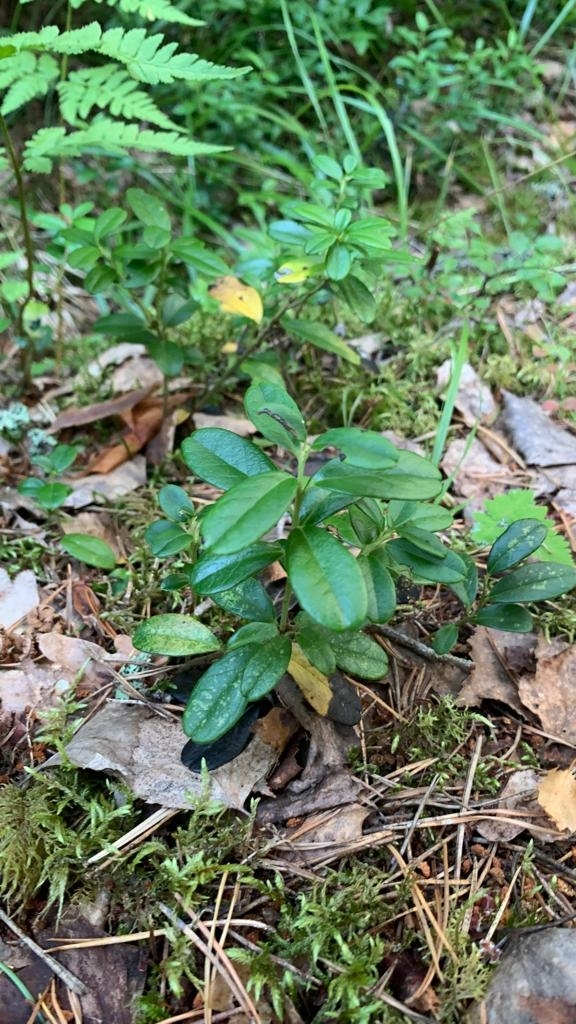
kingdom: Plantae
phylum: Tracheophyta
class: Magnoliopsida
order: Ericales
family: Ericaceae
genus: Vaccinium
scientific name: Vaccinium vitis-idaea
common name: Cowberry
